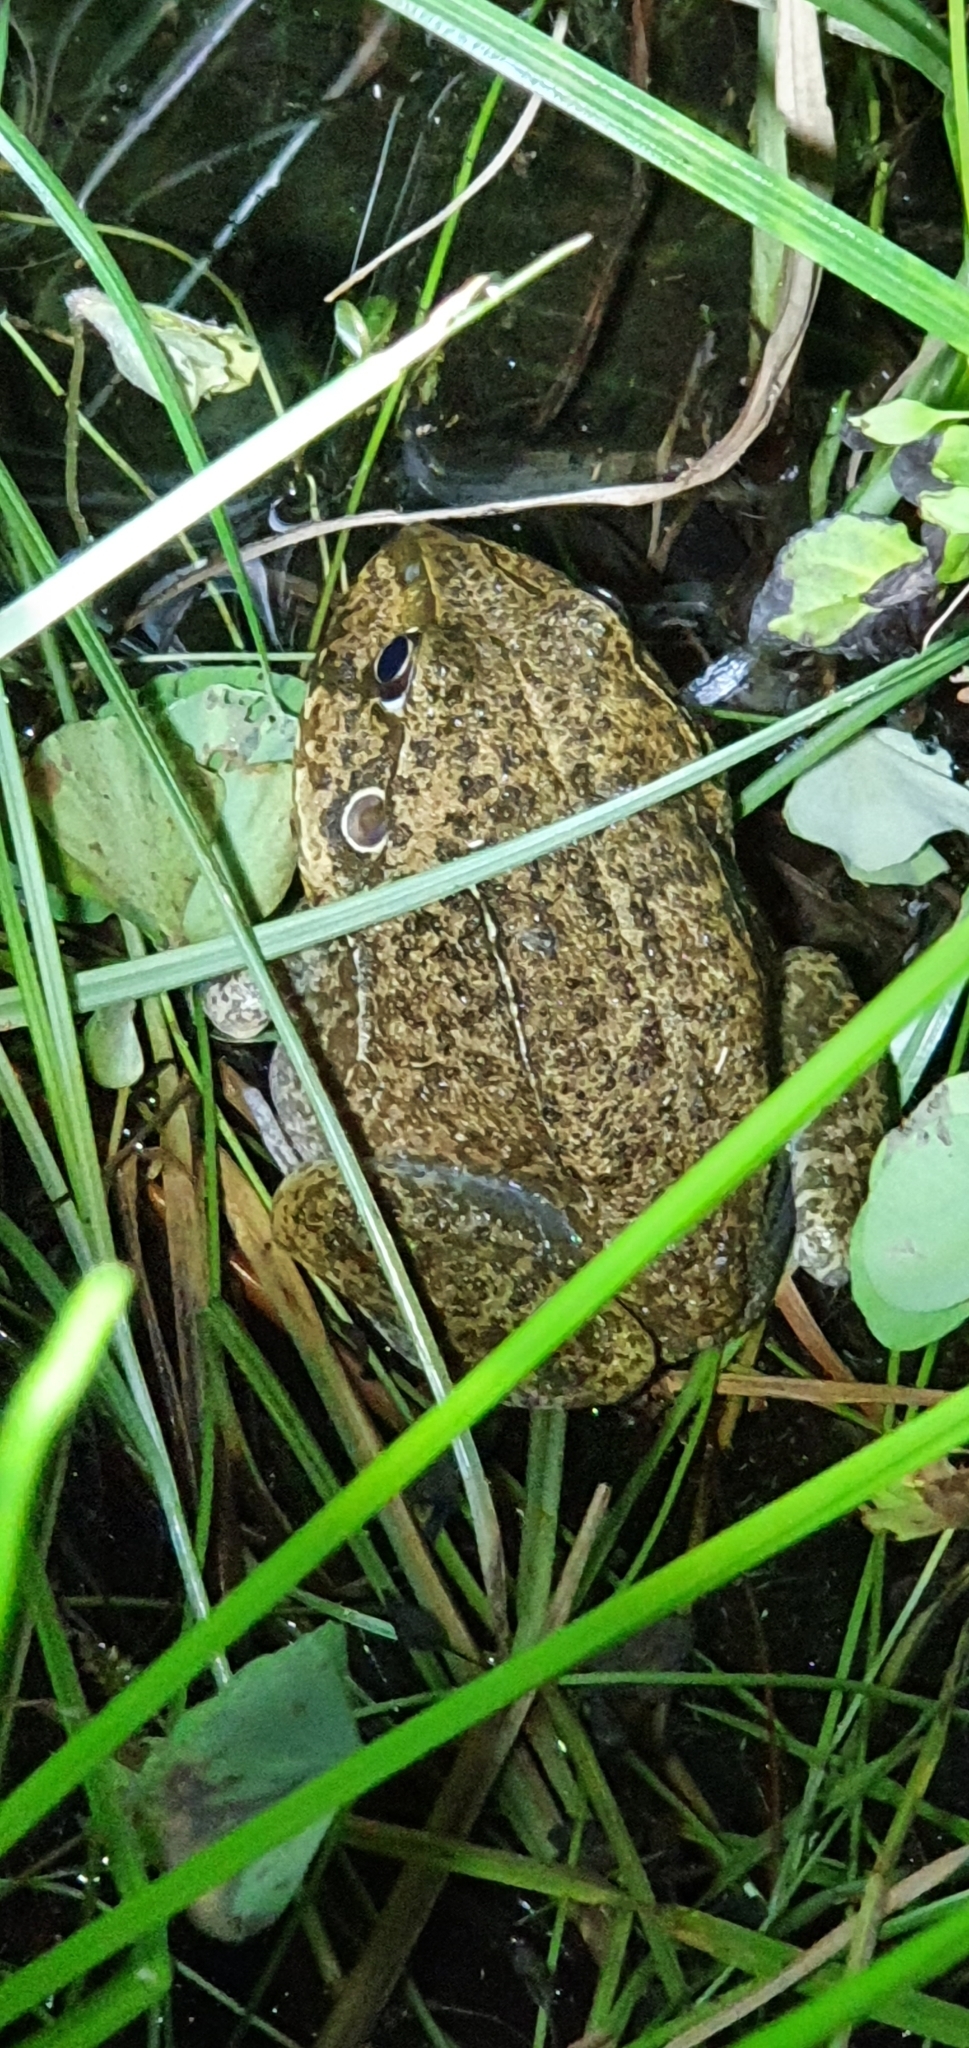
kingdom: Animalia
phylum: Chordata
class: Amphibia
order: Anura
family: Pelodryadidae
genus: Ranoidea
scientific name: Ranoidea novaehollandiae
